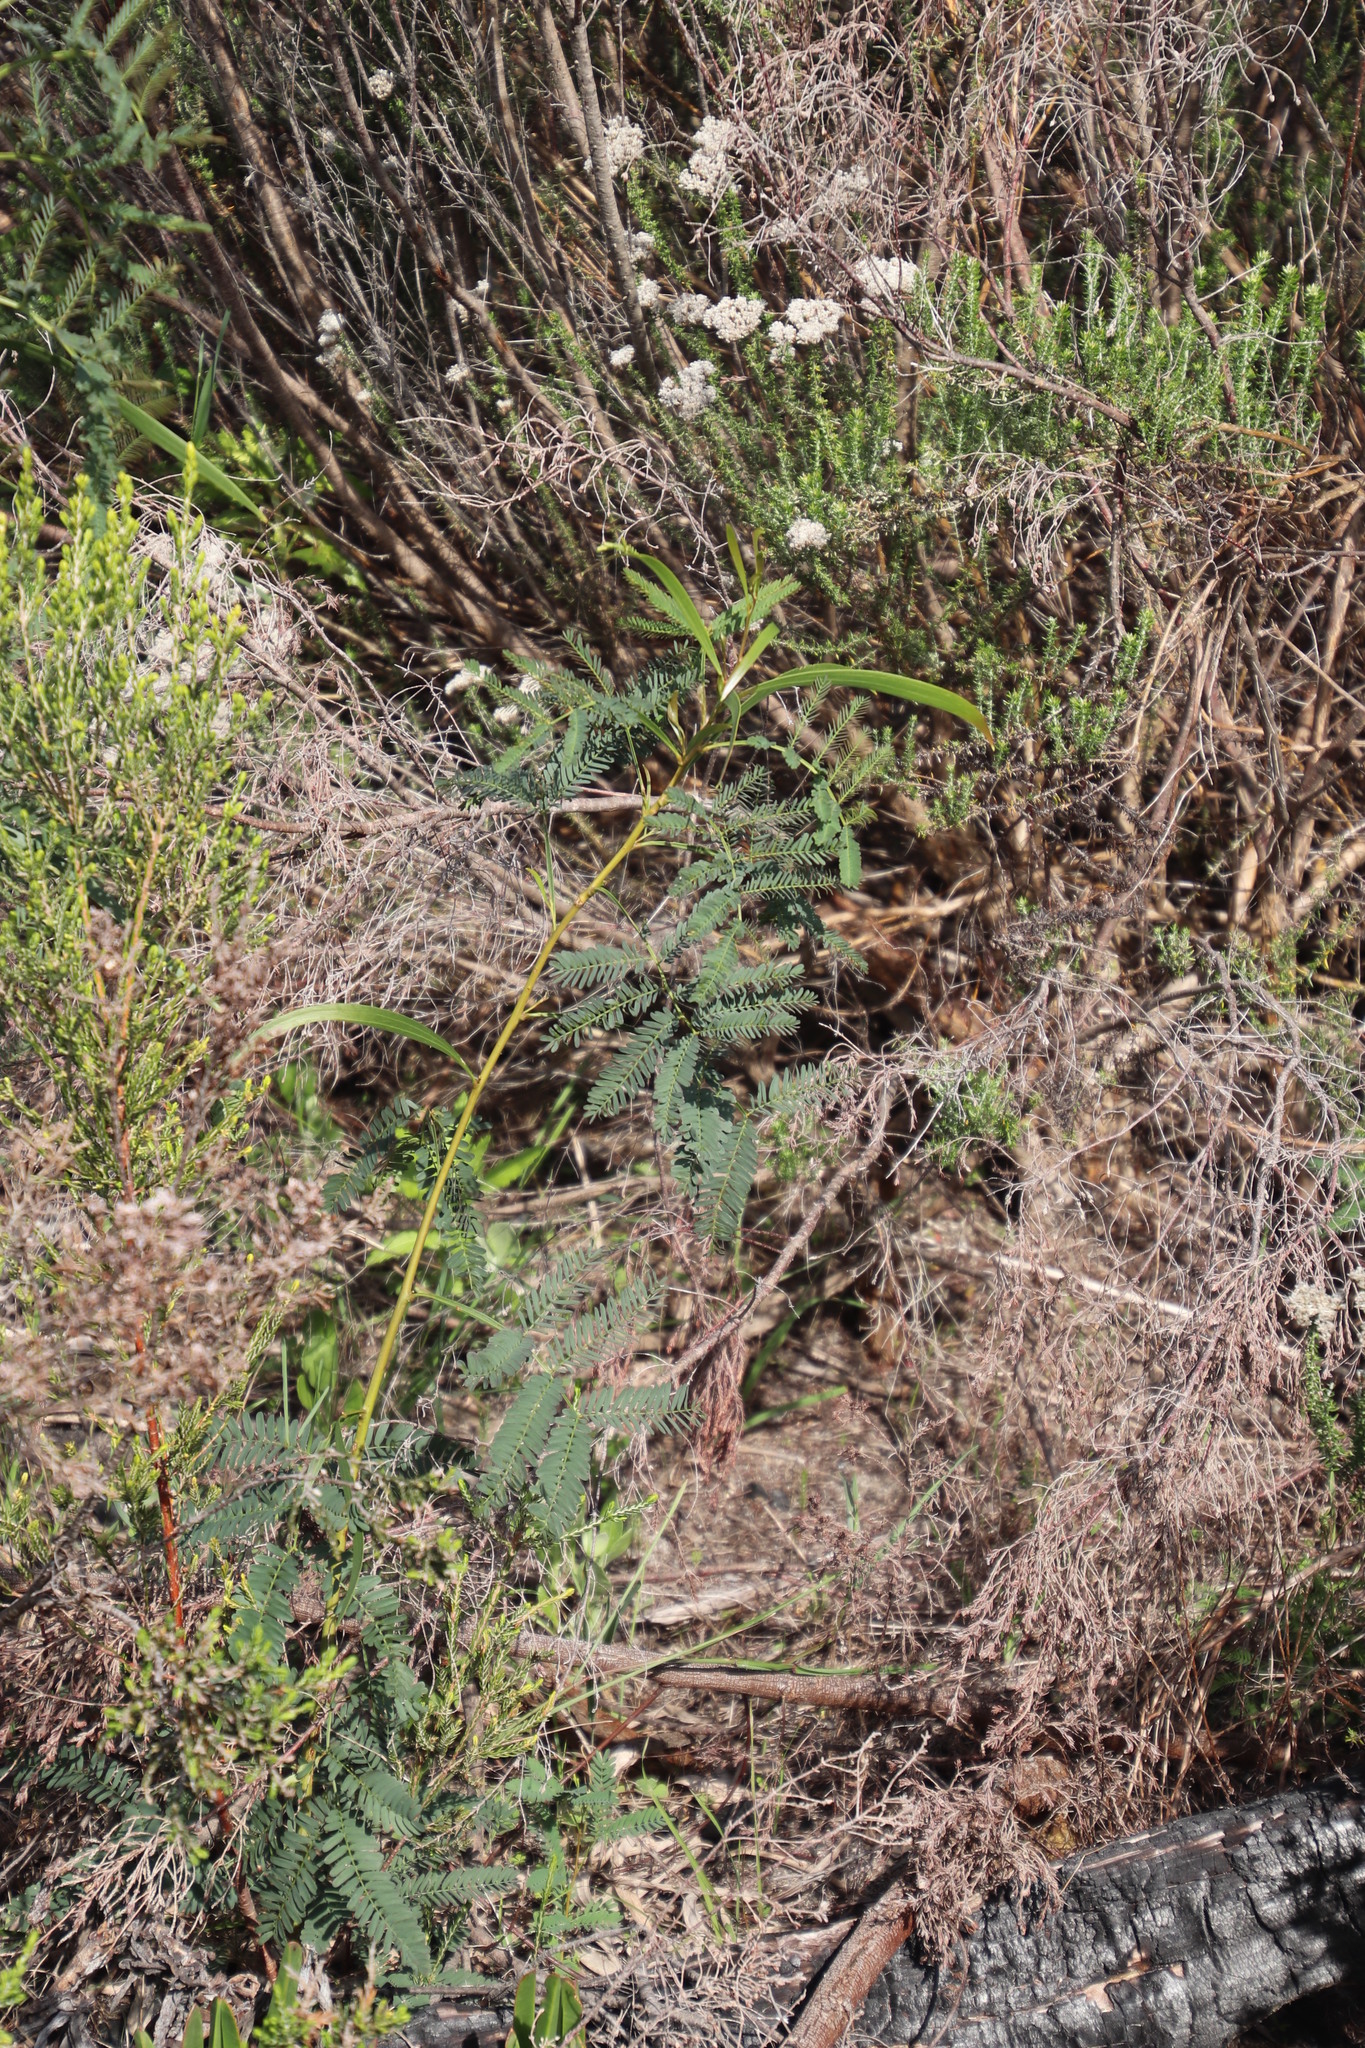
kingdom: Plantae
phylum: Tracheophyta
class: Magnoliopsida
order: Fabales
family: Fabaceae
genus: Acacia
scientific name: Acacia implexa
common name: Black wattle
